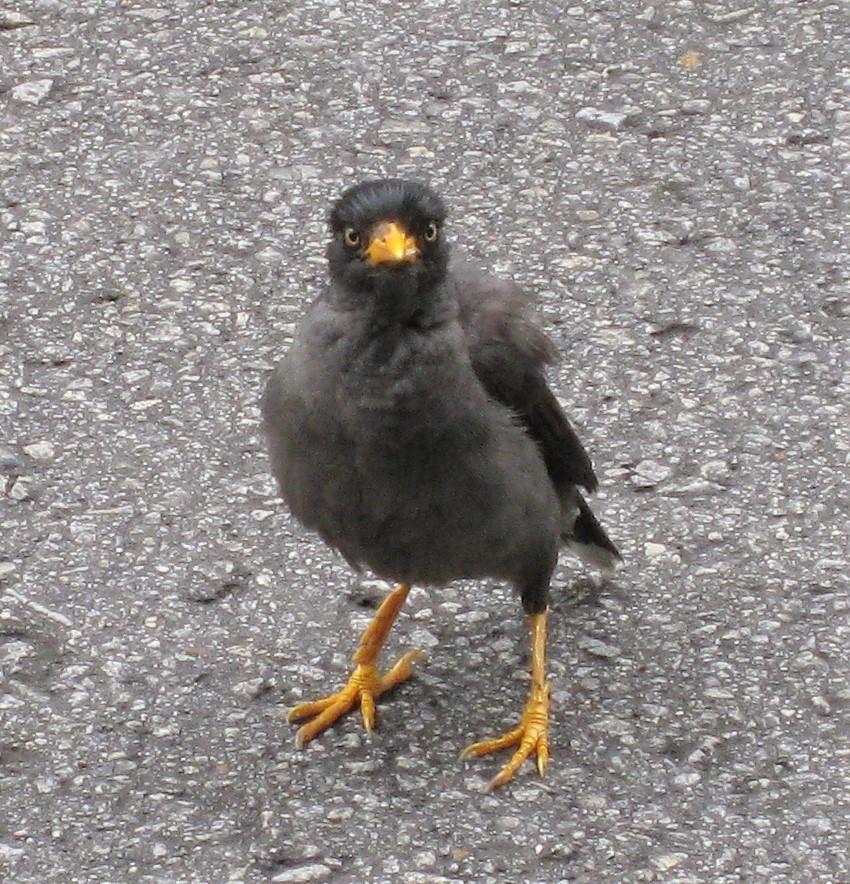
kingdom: Animalia
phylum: Chordata
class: Aves
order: Passeriformes
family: Sturnidae
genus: Acridotheres
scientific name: Acridotheres javanicus
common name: Javan myna
